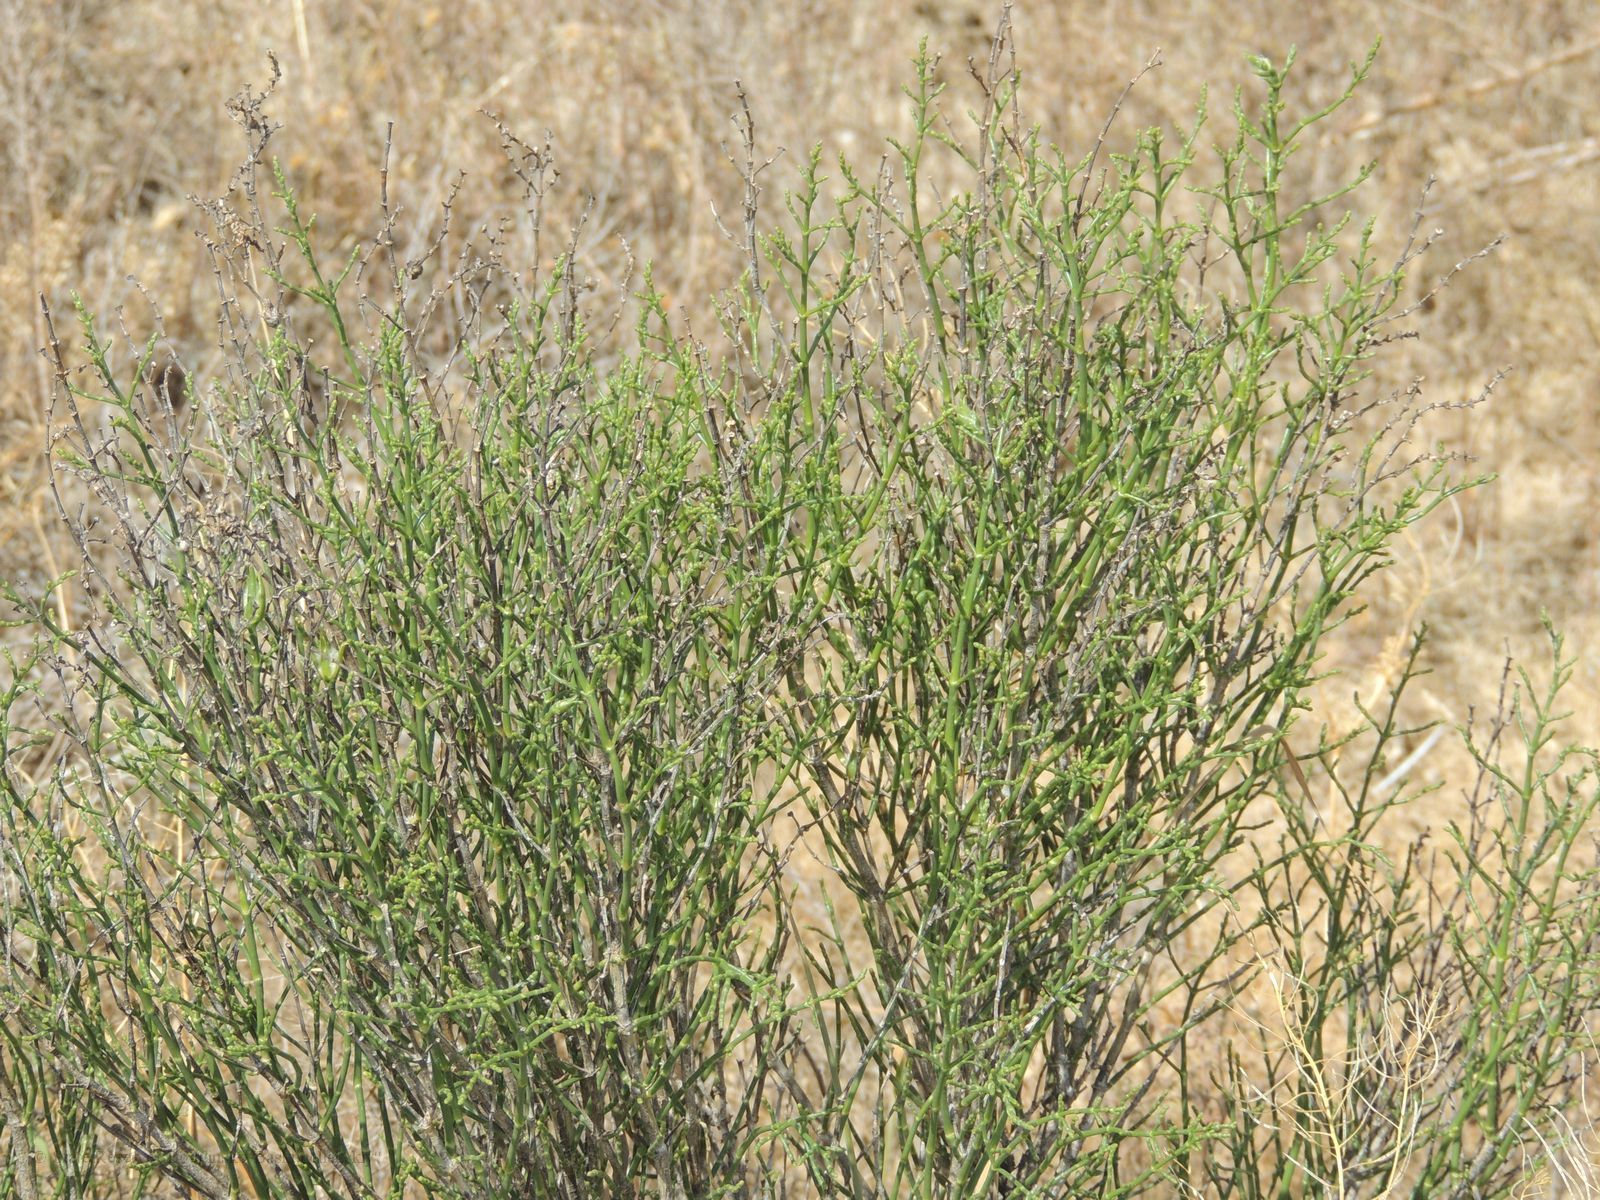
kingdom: Plantae
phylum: Tracheophyta
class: Magnoliopsida
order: Caryophyllales
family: Amaranthaceae
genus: Anabasis
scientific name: Anabasis aphylla
